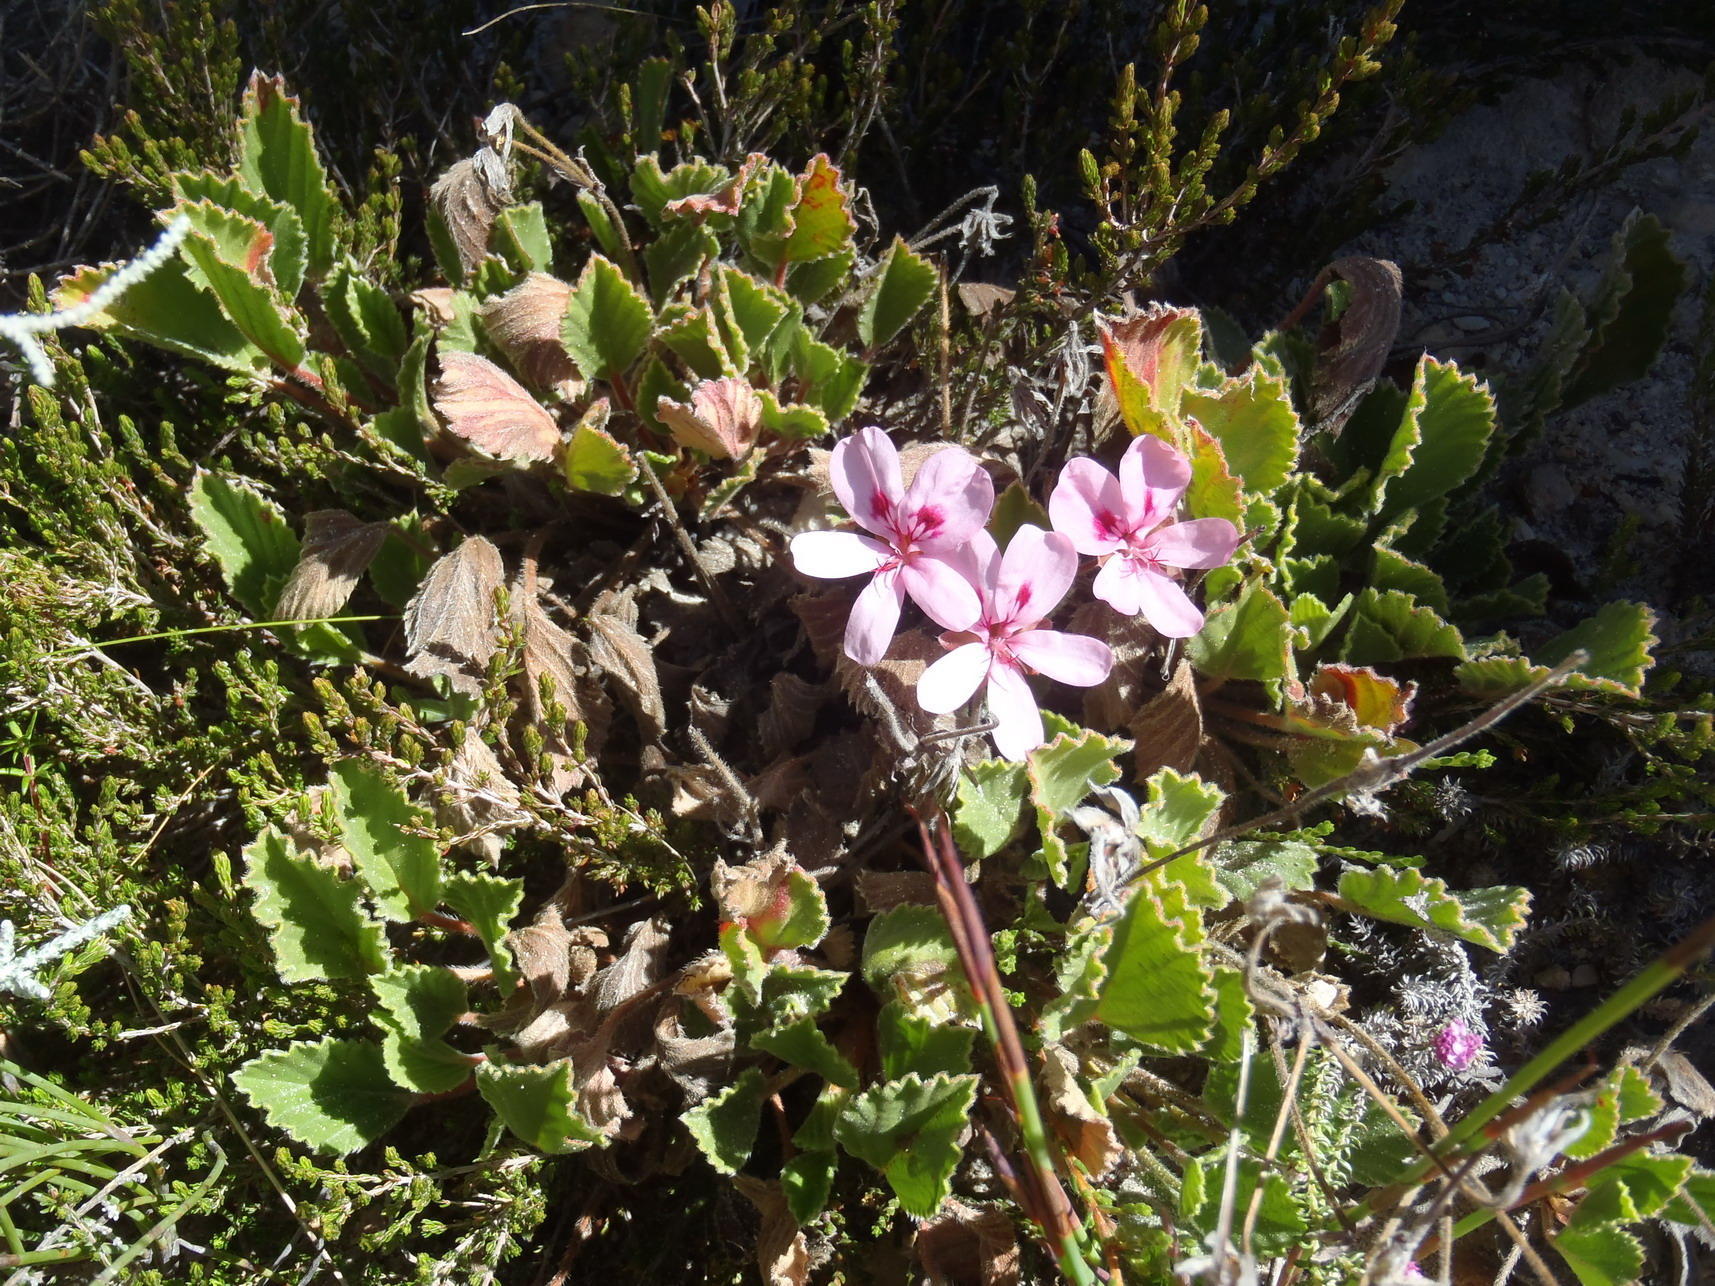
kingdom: Plantae
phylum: Tracheophyta
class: Magnoliopsida
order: Geraniales
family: Geraniaceae
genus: Pelargonium
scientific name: Pelargonium ovale
